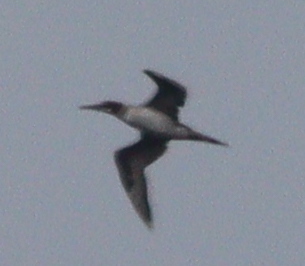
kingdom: Animalia
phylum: Chordata
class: Aves
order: Suliformes
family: Sulidae
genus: Morus
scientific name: Morus bassanus
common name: Northern gannet
